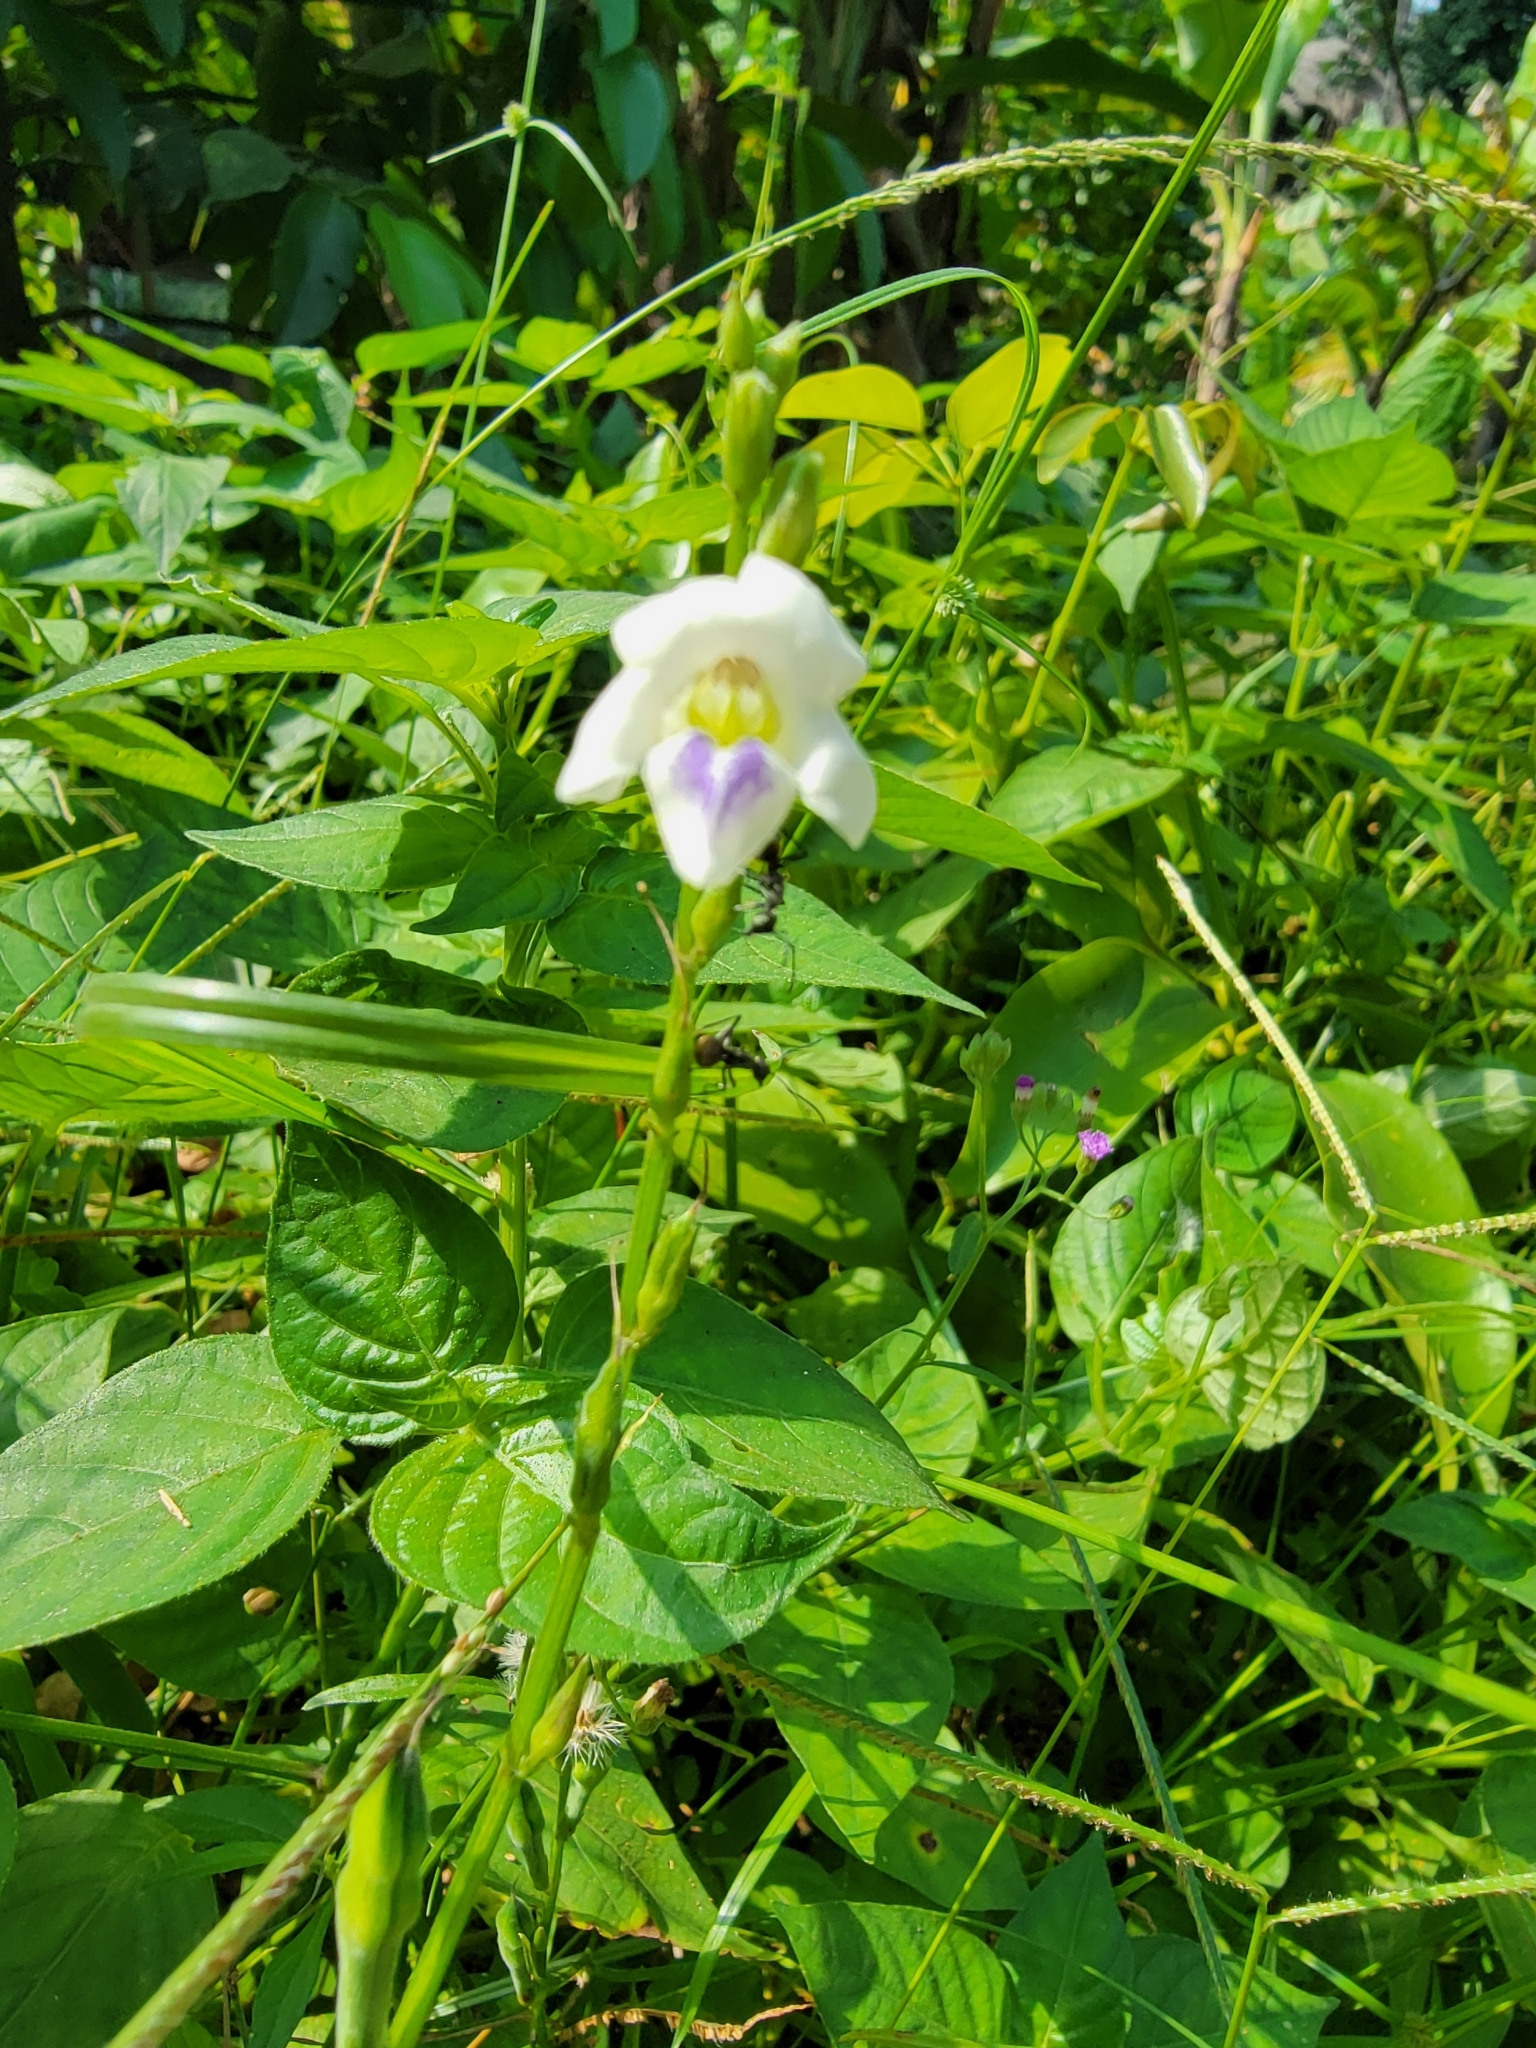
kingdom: Plantae
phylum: Tracheophyta
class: Magnoliopsida
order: Lamiales
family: Acanthaceae
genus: Asystasia
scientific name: Asystasia intrusa
